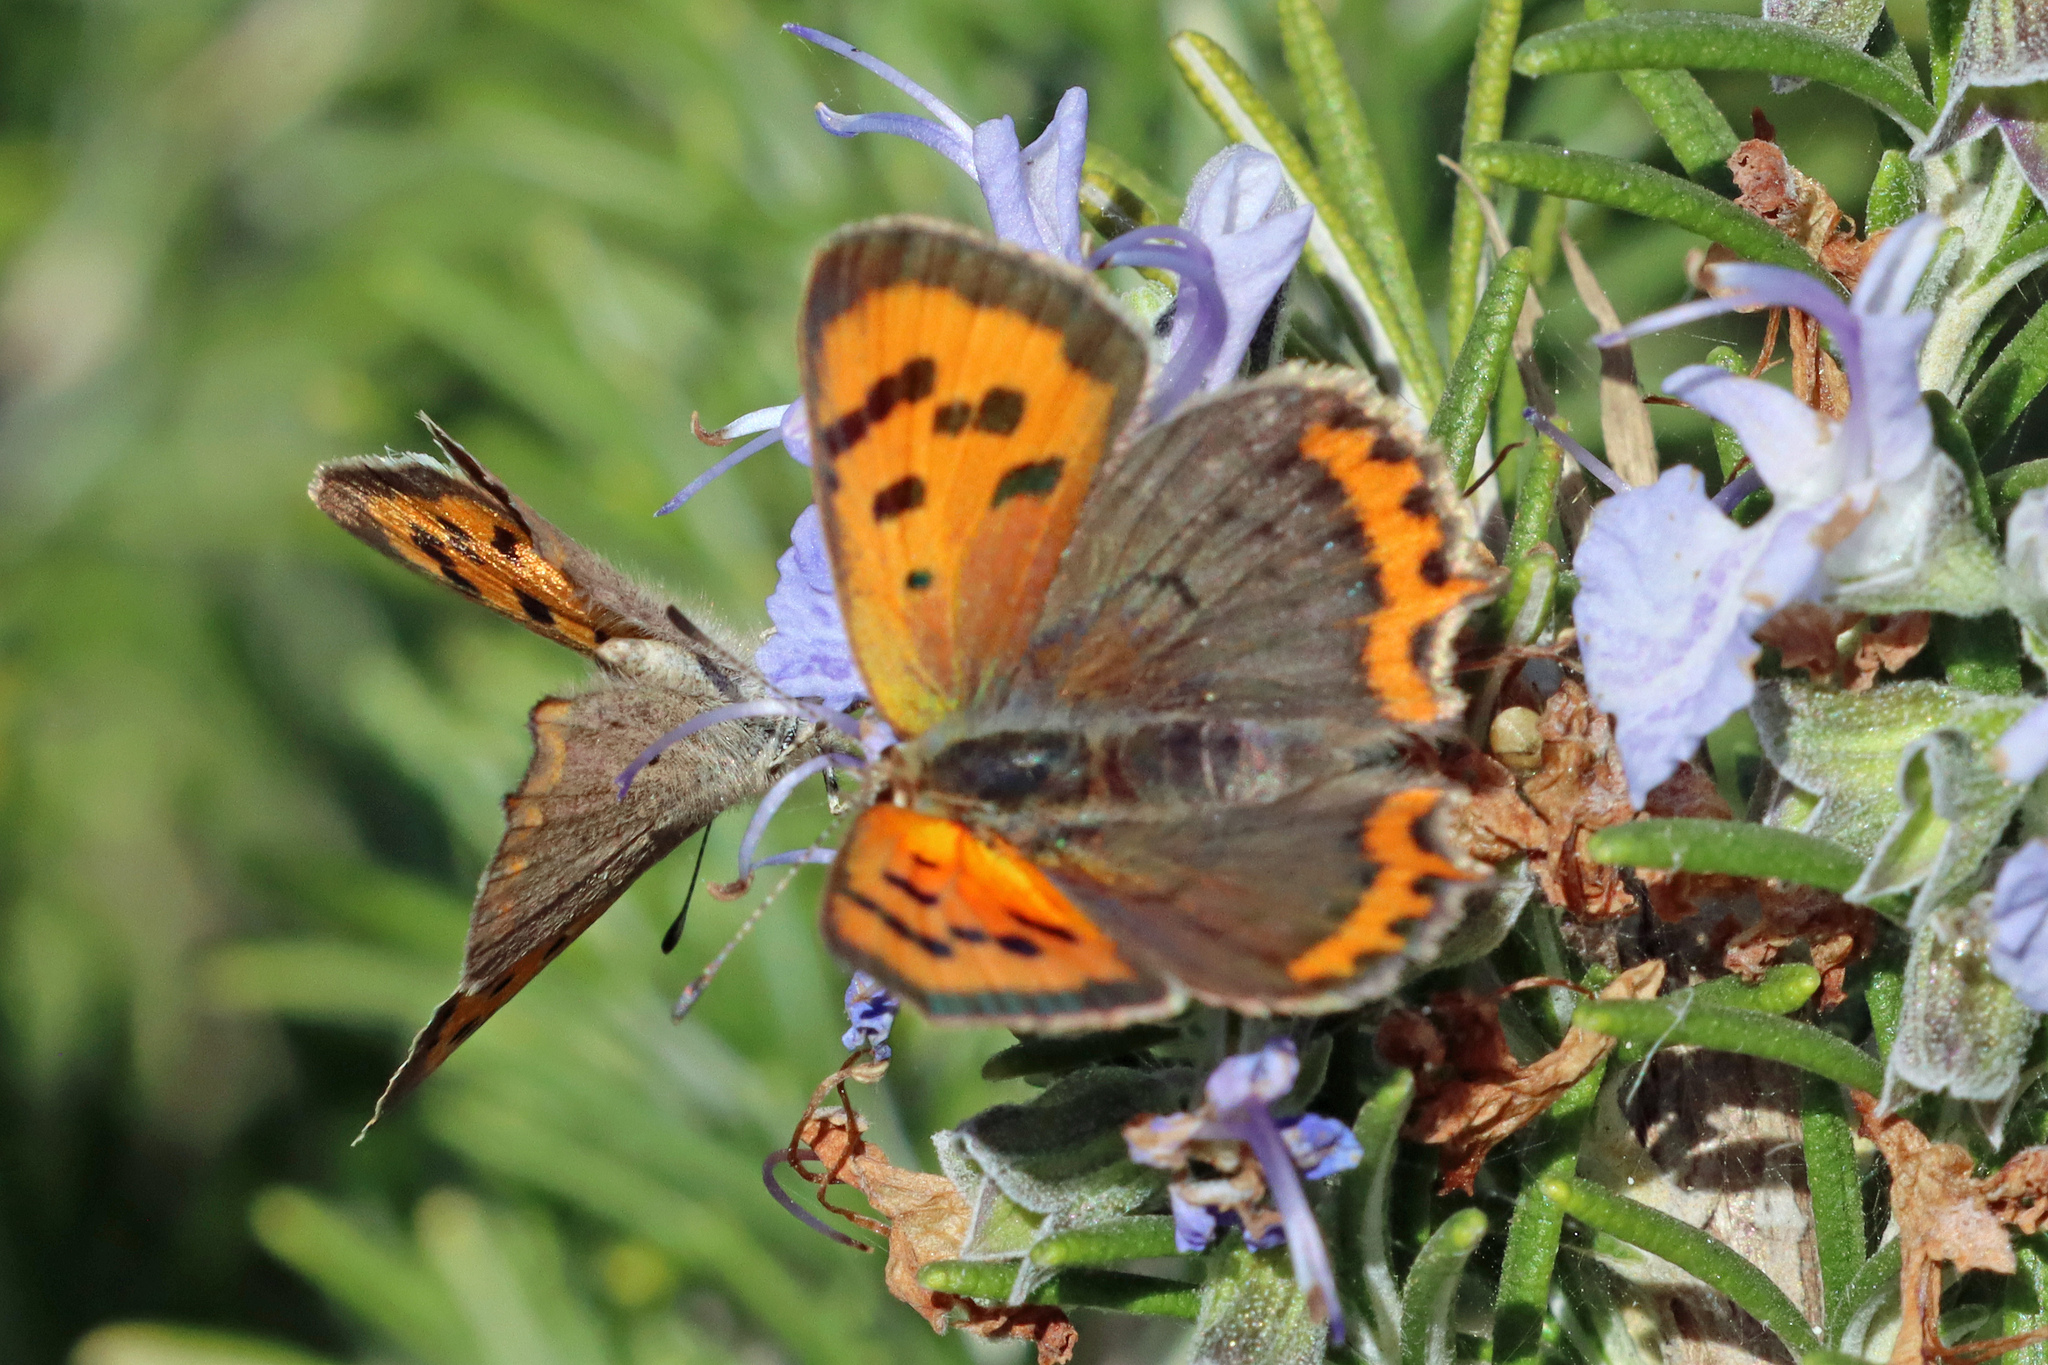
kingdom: Animalia
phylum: Arthropoda
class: Insecta
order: Lepidoptera
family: Lycaenidae
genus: Lycaena
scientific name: Lycaena phlaeas
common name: Small copper
